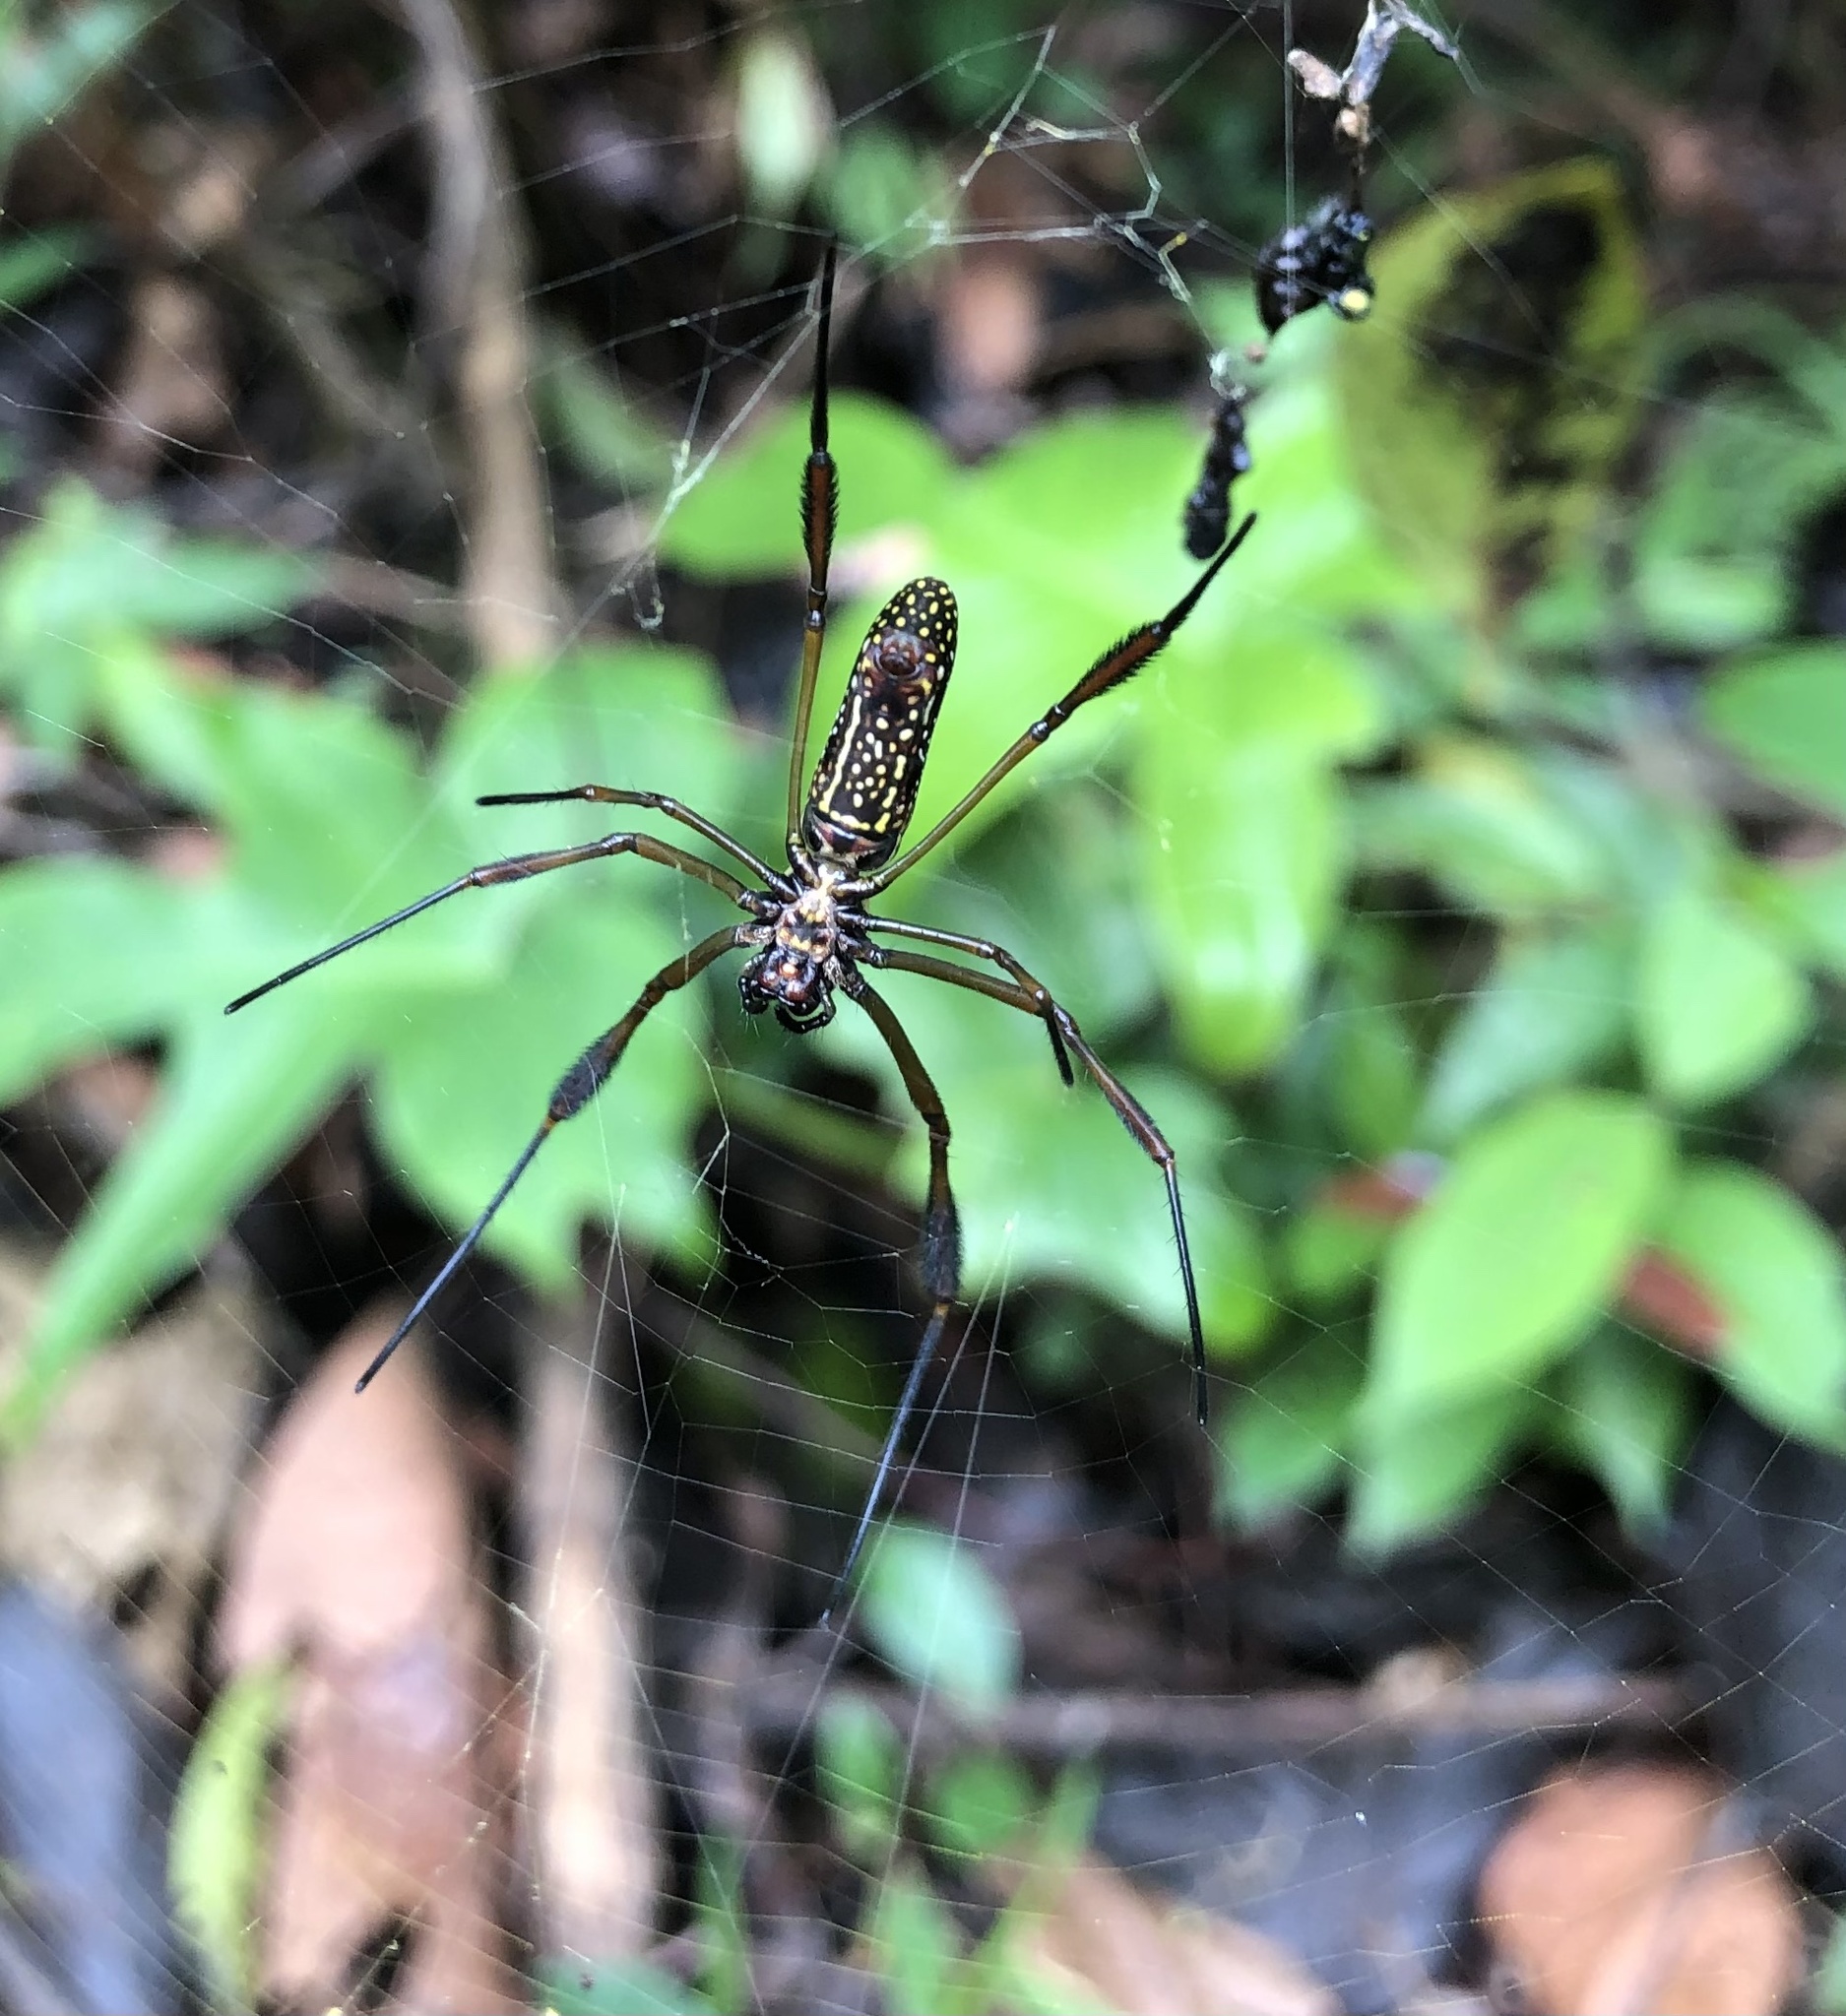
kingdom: Animalia
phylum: Arthropoda
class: Arachnida
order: Araneae
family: Araneidae
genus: Trichonephila
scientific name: Trichonephila clavipes
